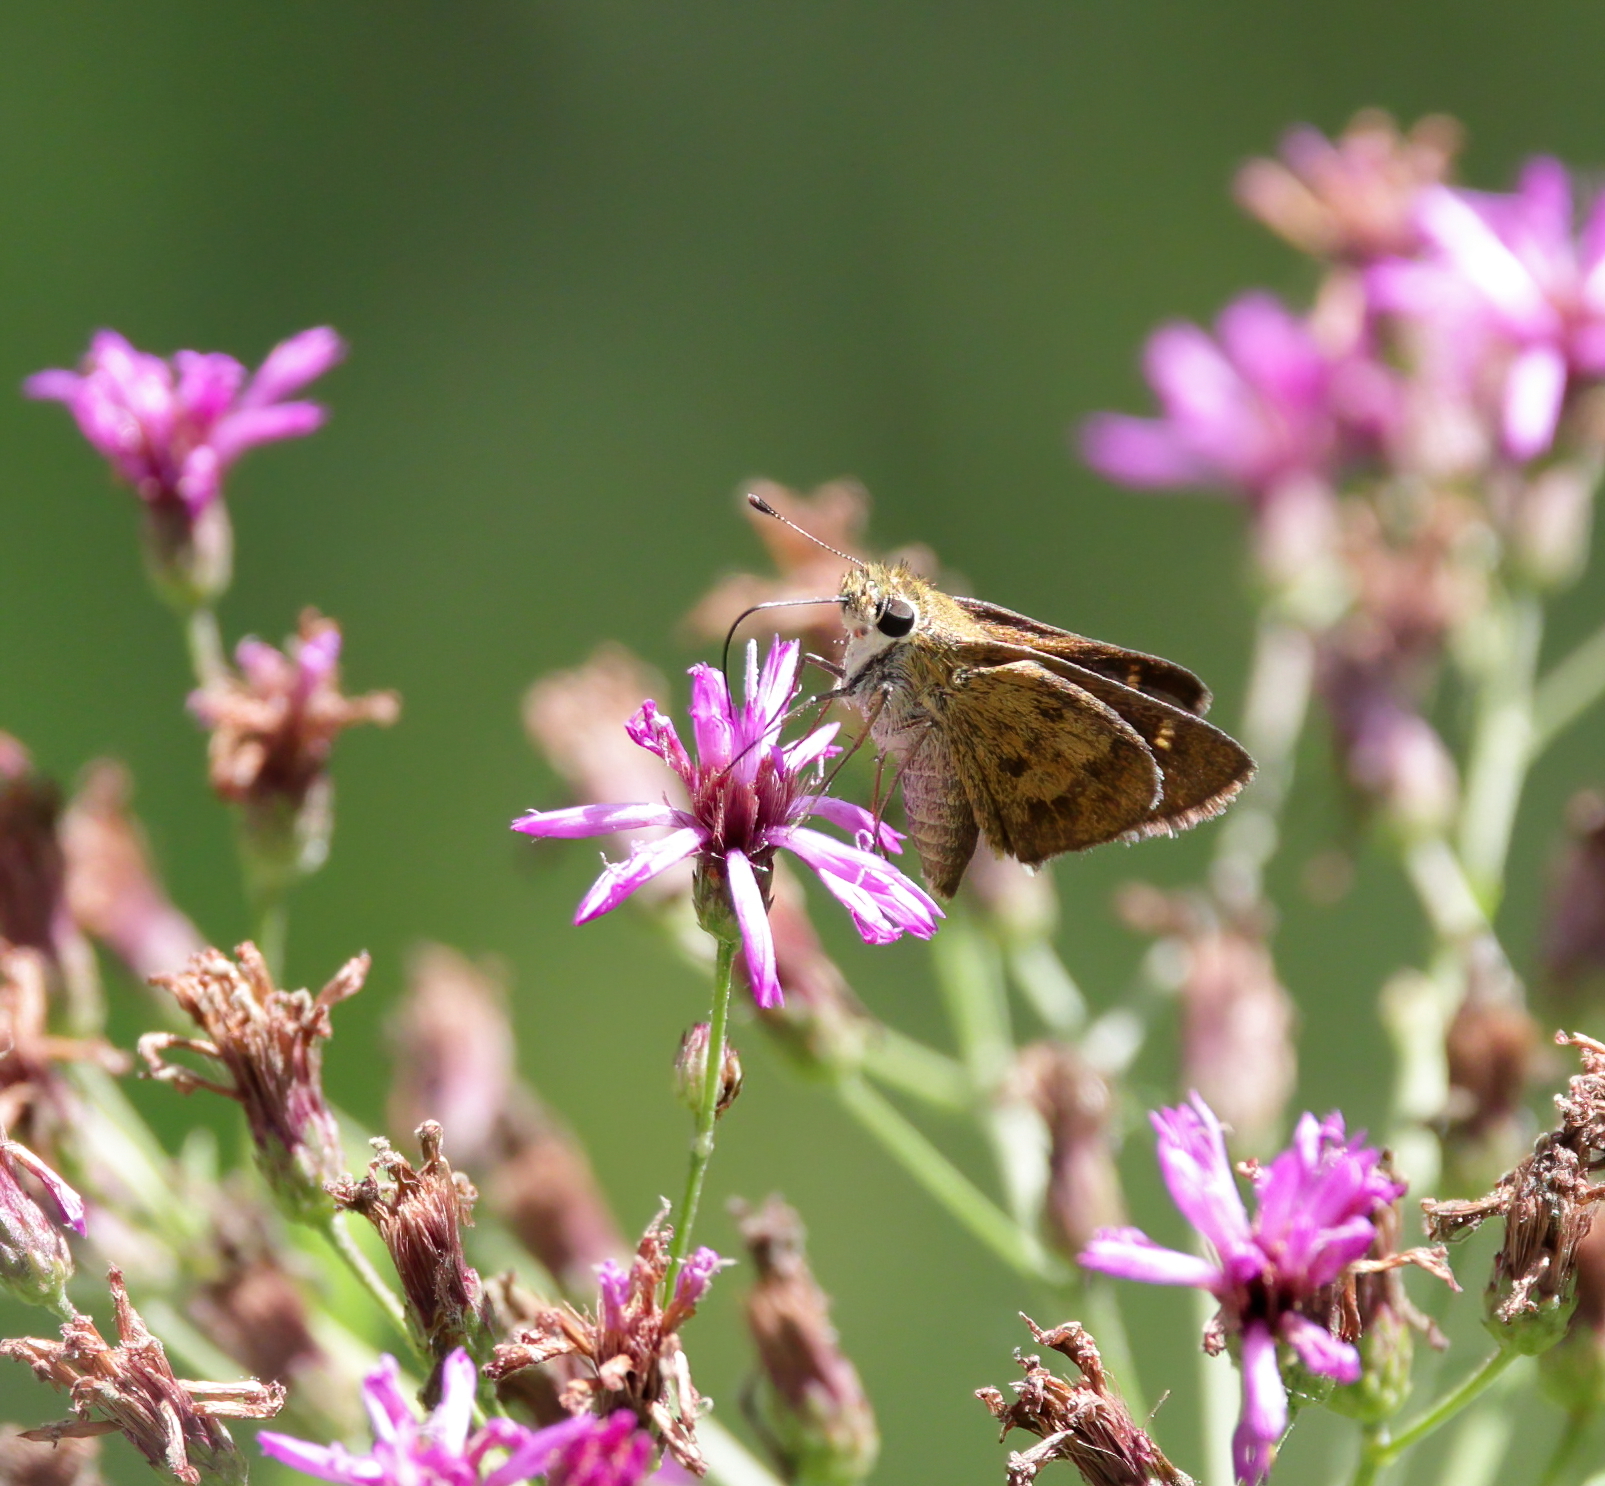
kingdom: Animalia
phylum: Arthropoda
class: Insecta
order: Lepidoptera
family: Hesperiidae
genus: Polites
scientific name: Polites vibex
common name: Whirlabout
